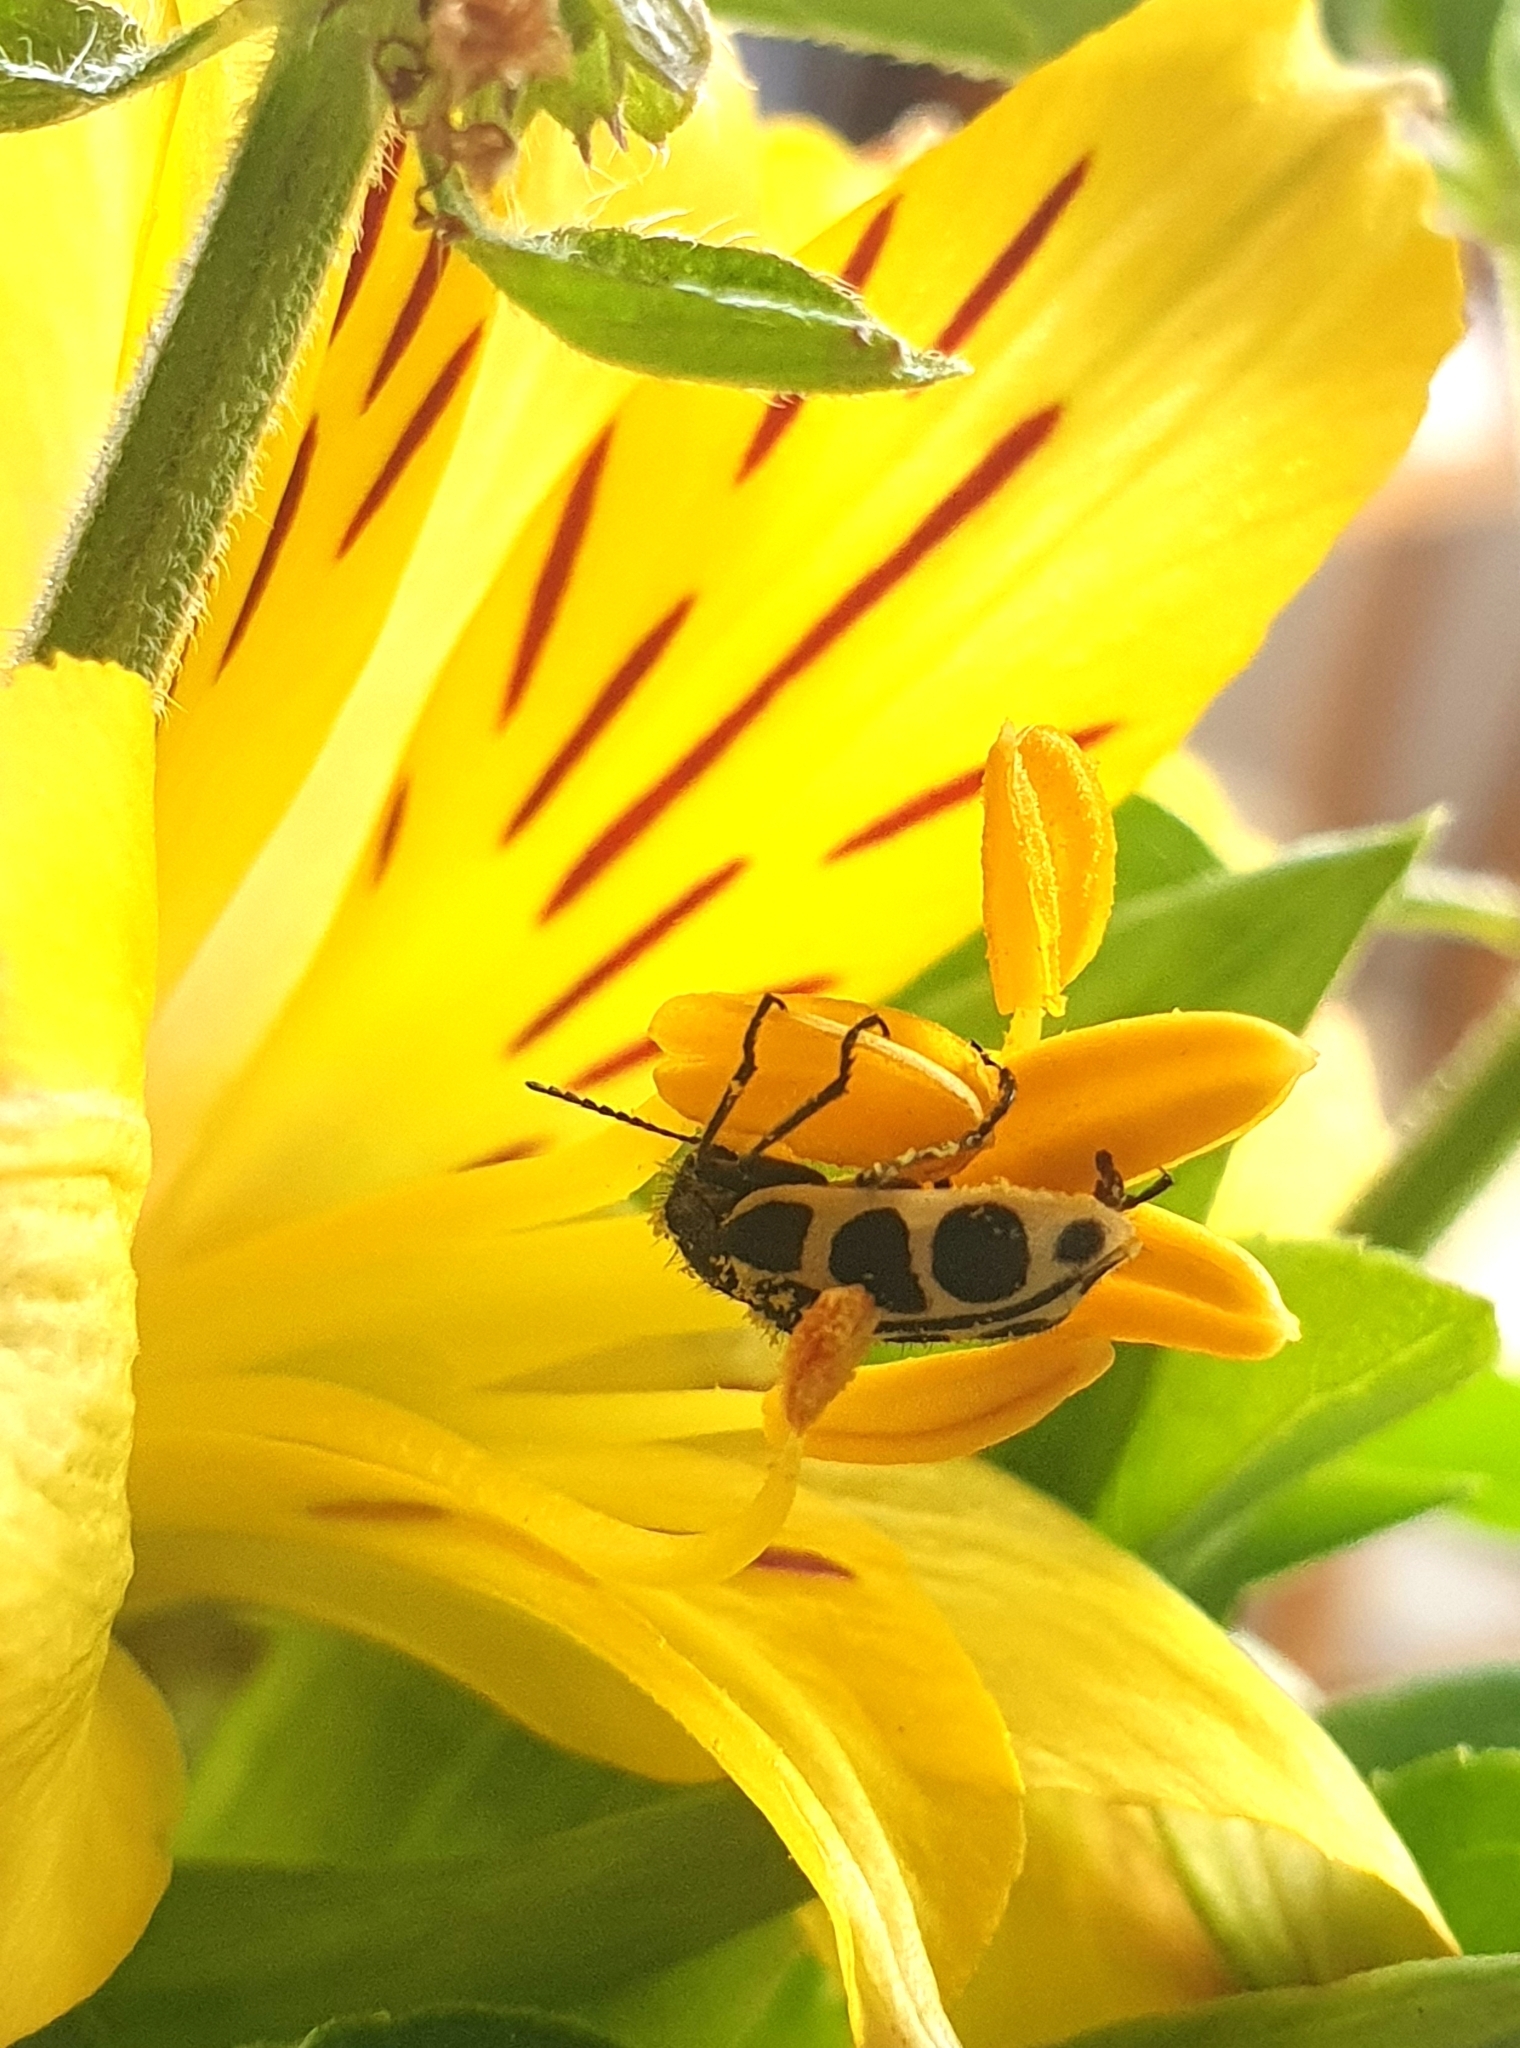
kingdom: Animalia
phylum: Arthropoda
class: Insecta
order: Coleoptera
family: Melyridae
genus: Astylus
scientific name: Astylus
